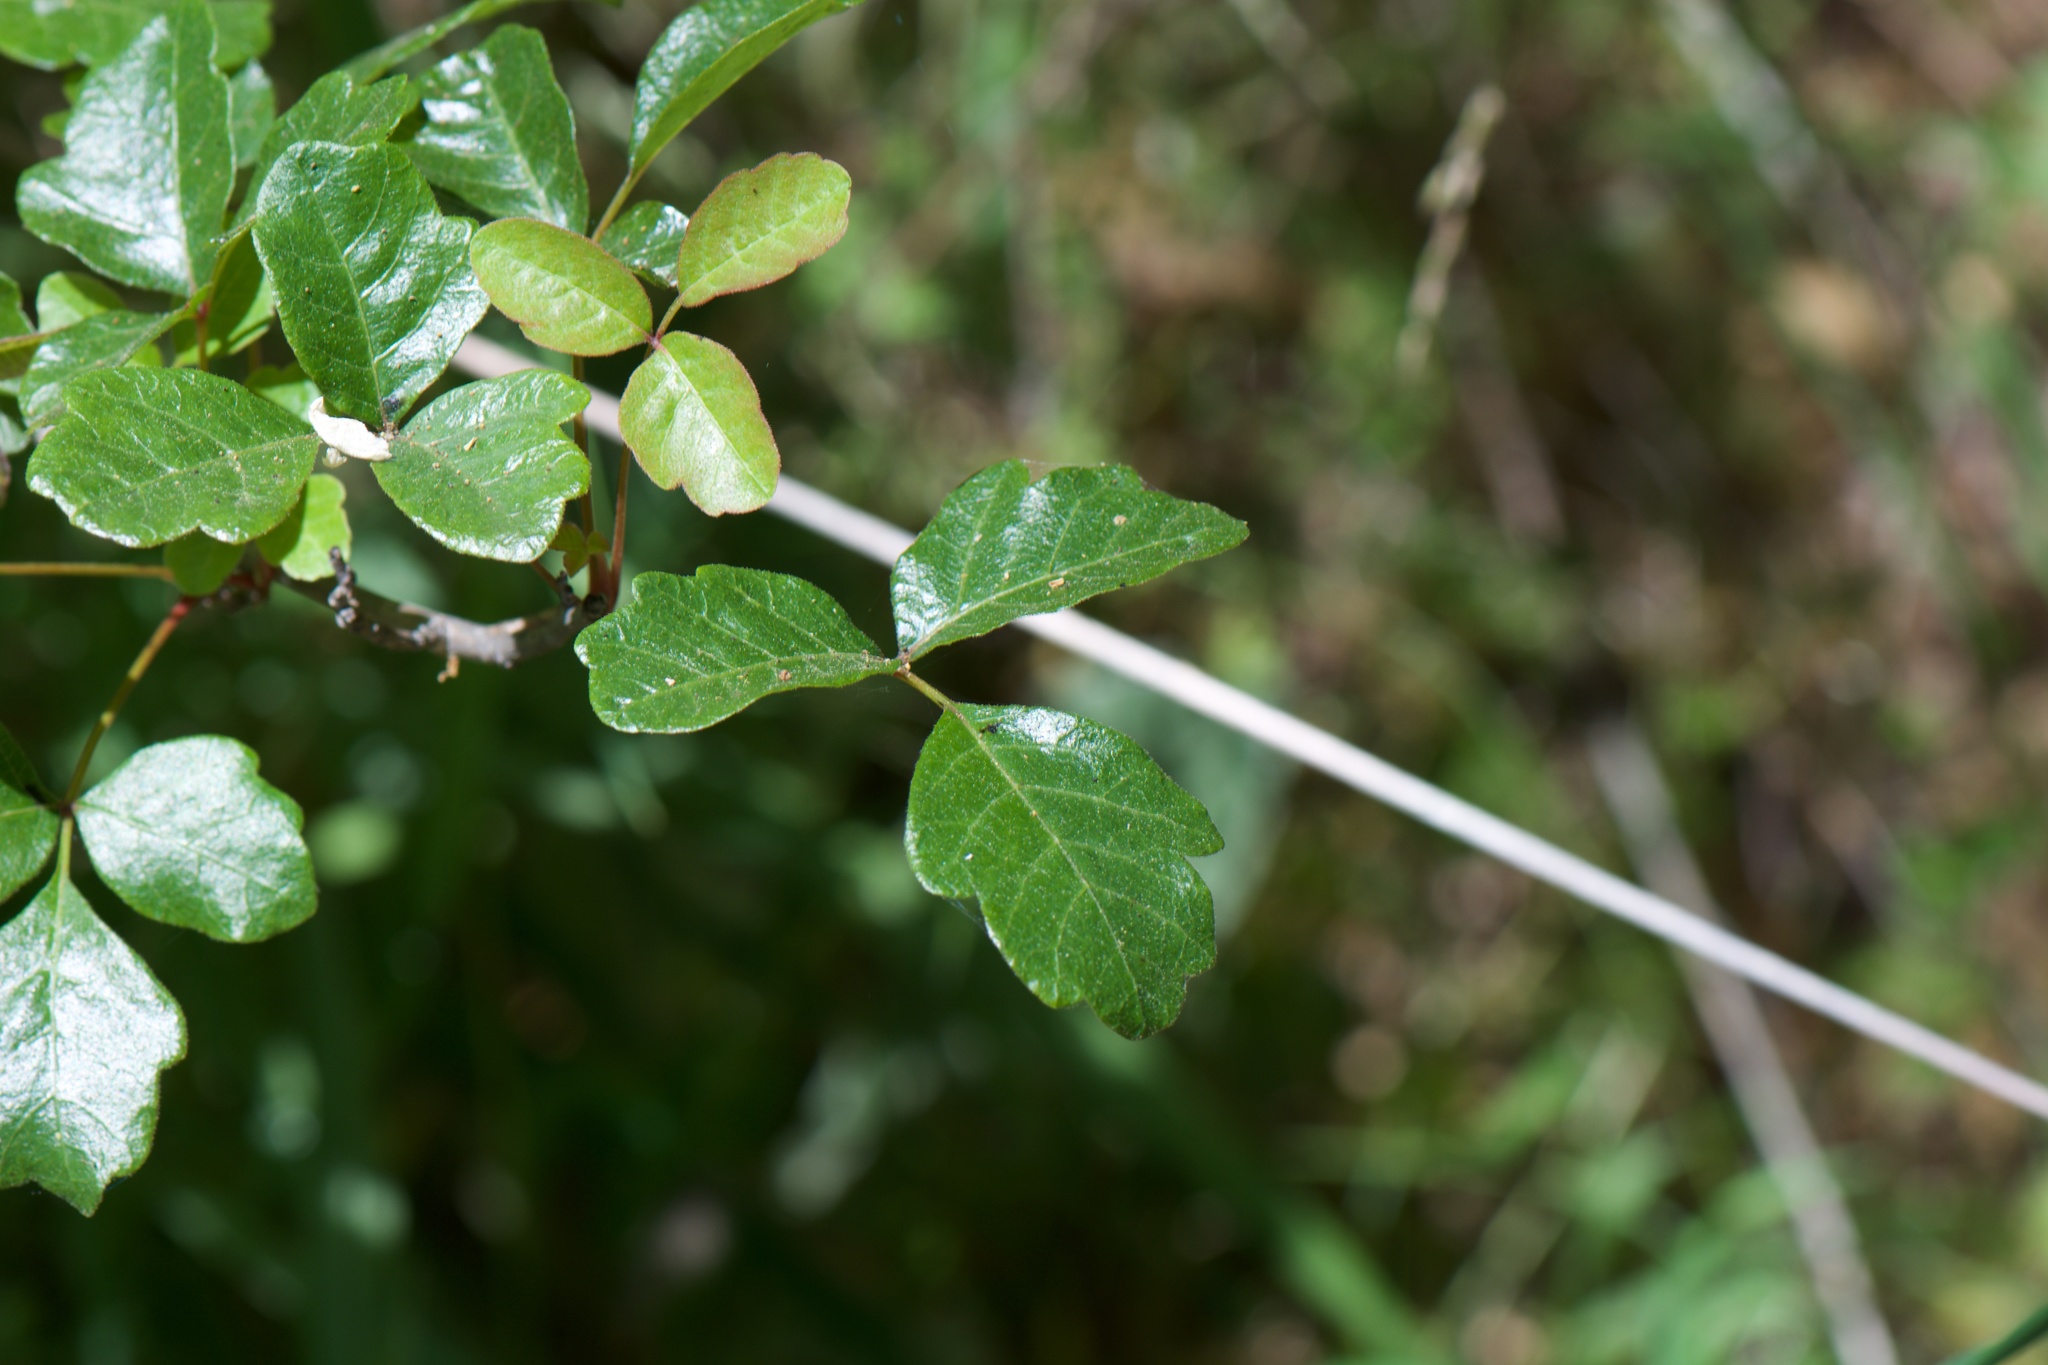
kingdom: Plantae
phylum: Tracheophyta
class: Magnoliopsida
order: Sapindales
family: Anacardiaceae
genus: Toxicodendron
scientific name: Toxicodendron diversilobum
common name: Pacific poison-oak
